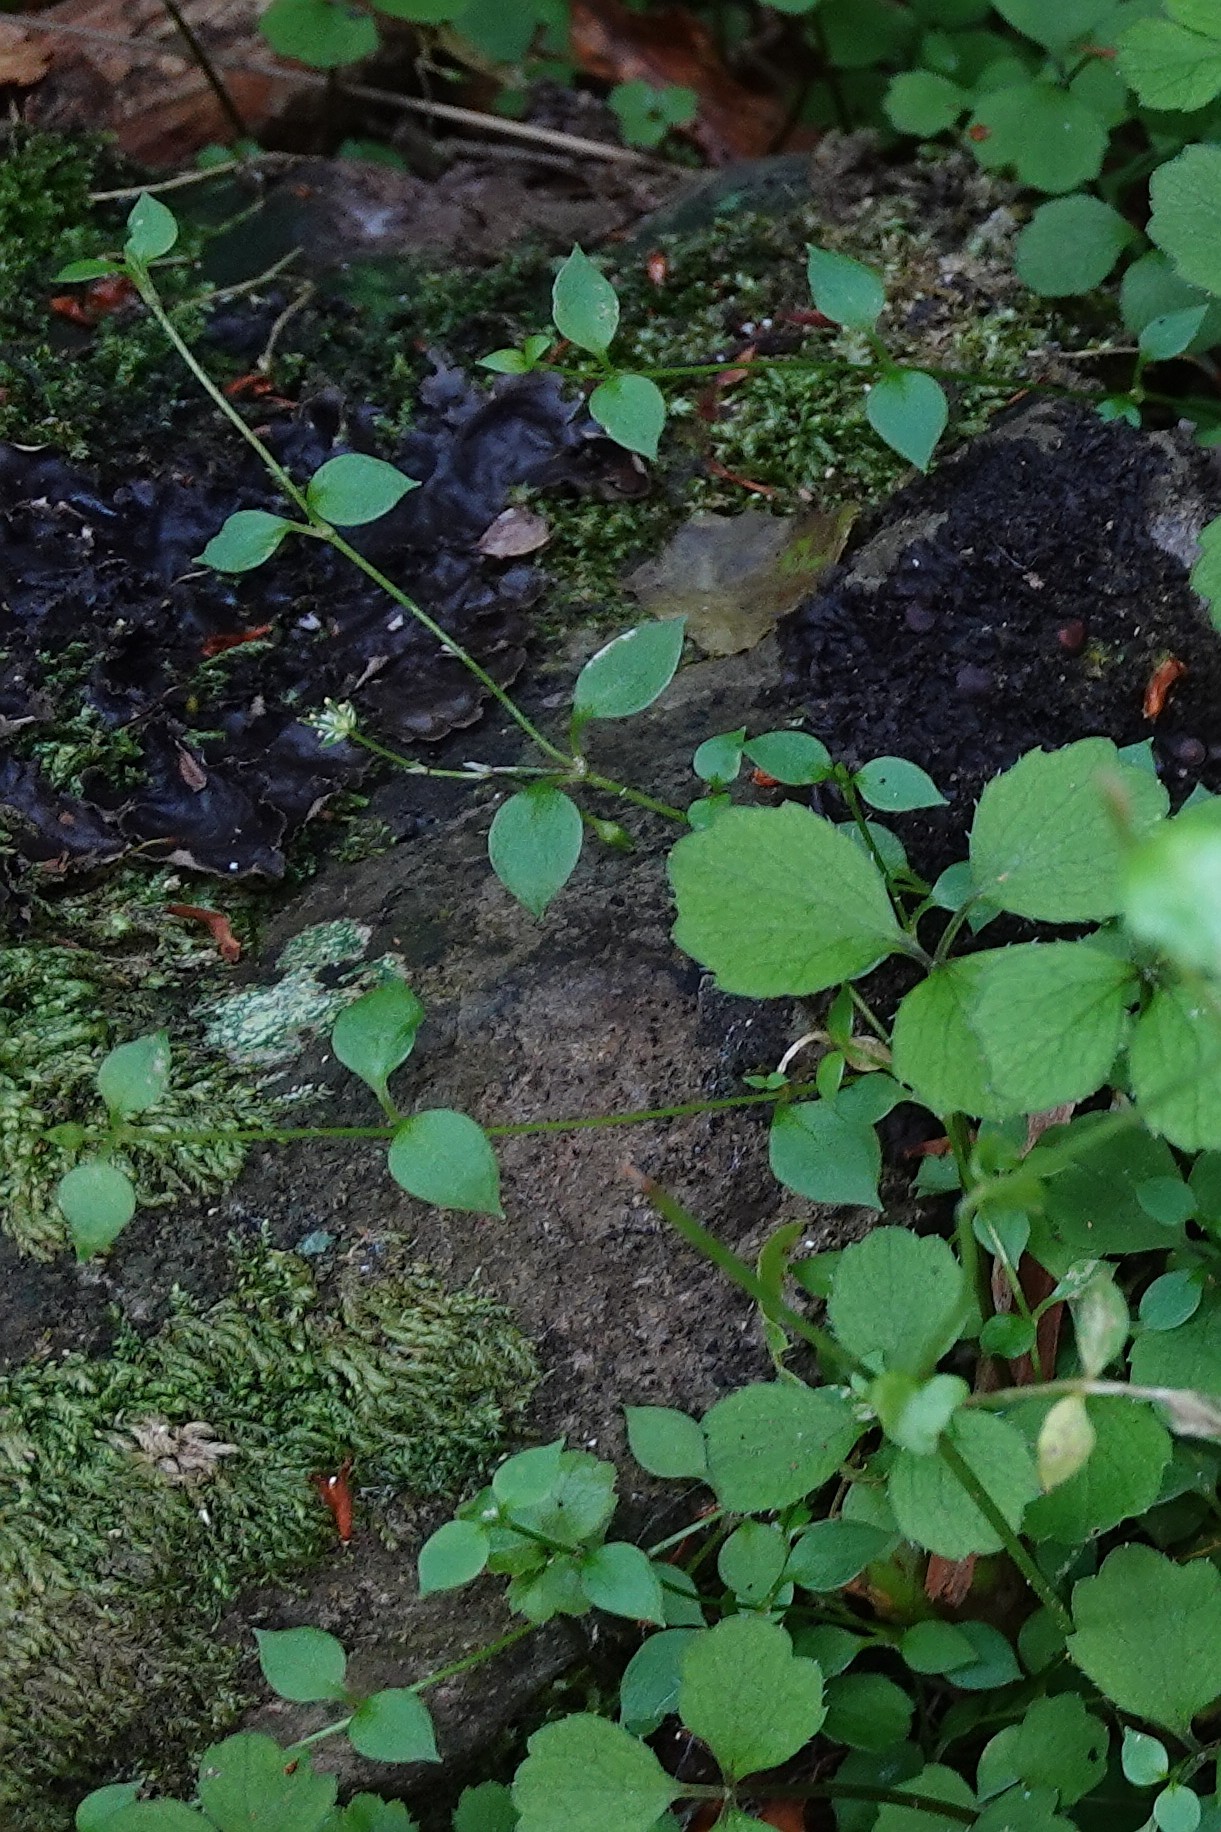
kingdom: Plantae
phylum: Tracheophyta
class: Magnoliopsida
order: Caryophyllales
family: Caryophyllaceae
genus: Stellaria
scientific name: Stellaria parviflora
